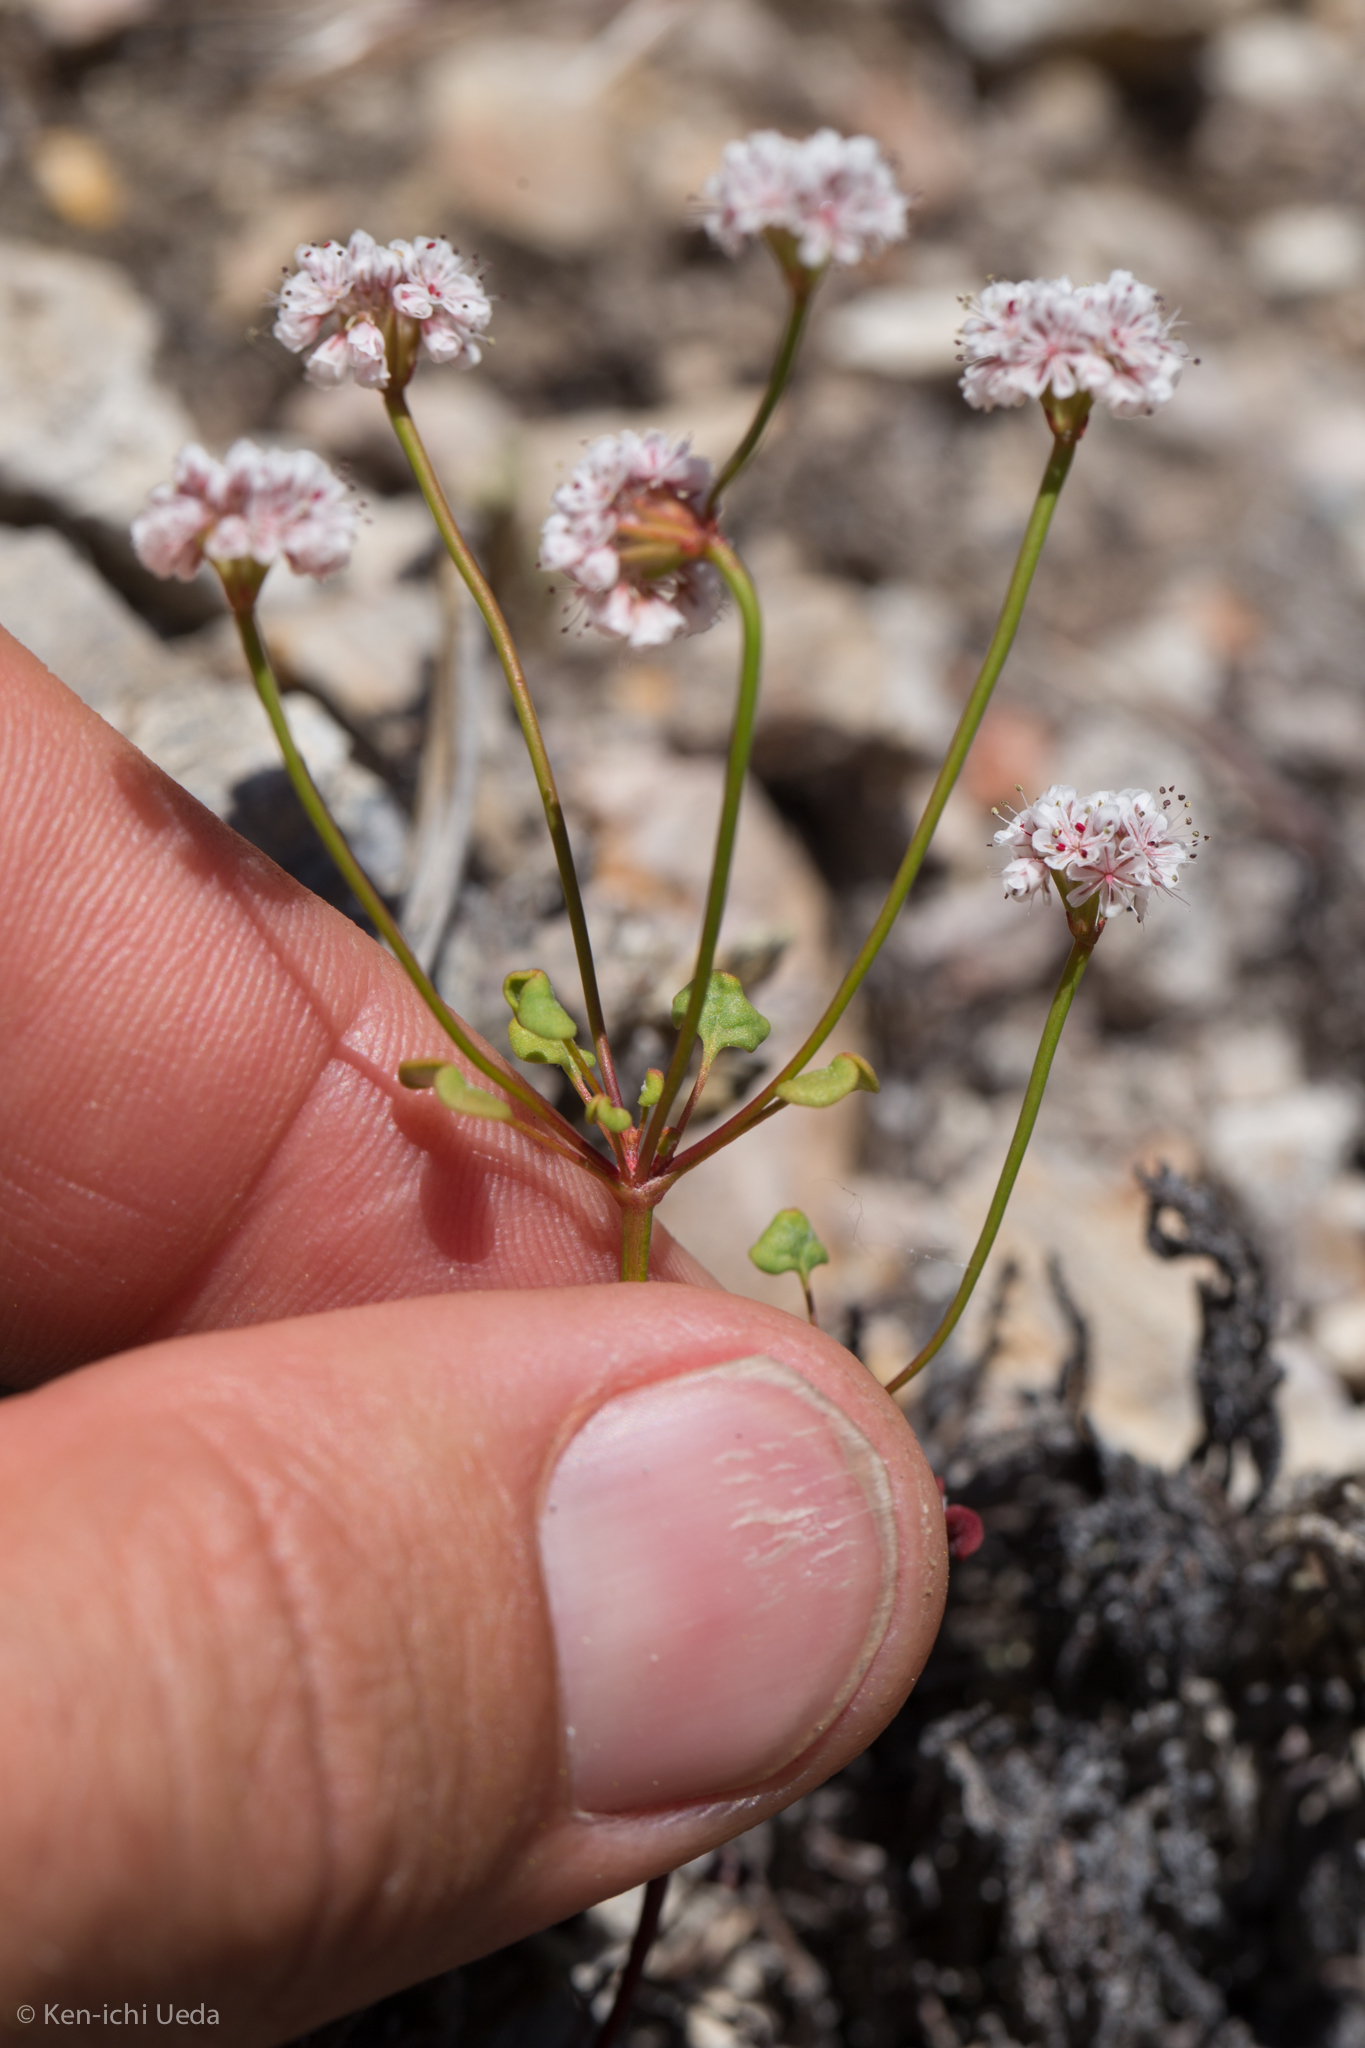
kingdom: Plantae
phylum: Tracheophyta
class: Magnoliopsida
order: Caryophyllales
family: Polygonaceae
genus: Eriogonum
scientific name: Eriogonum nortonii
